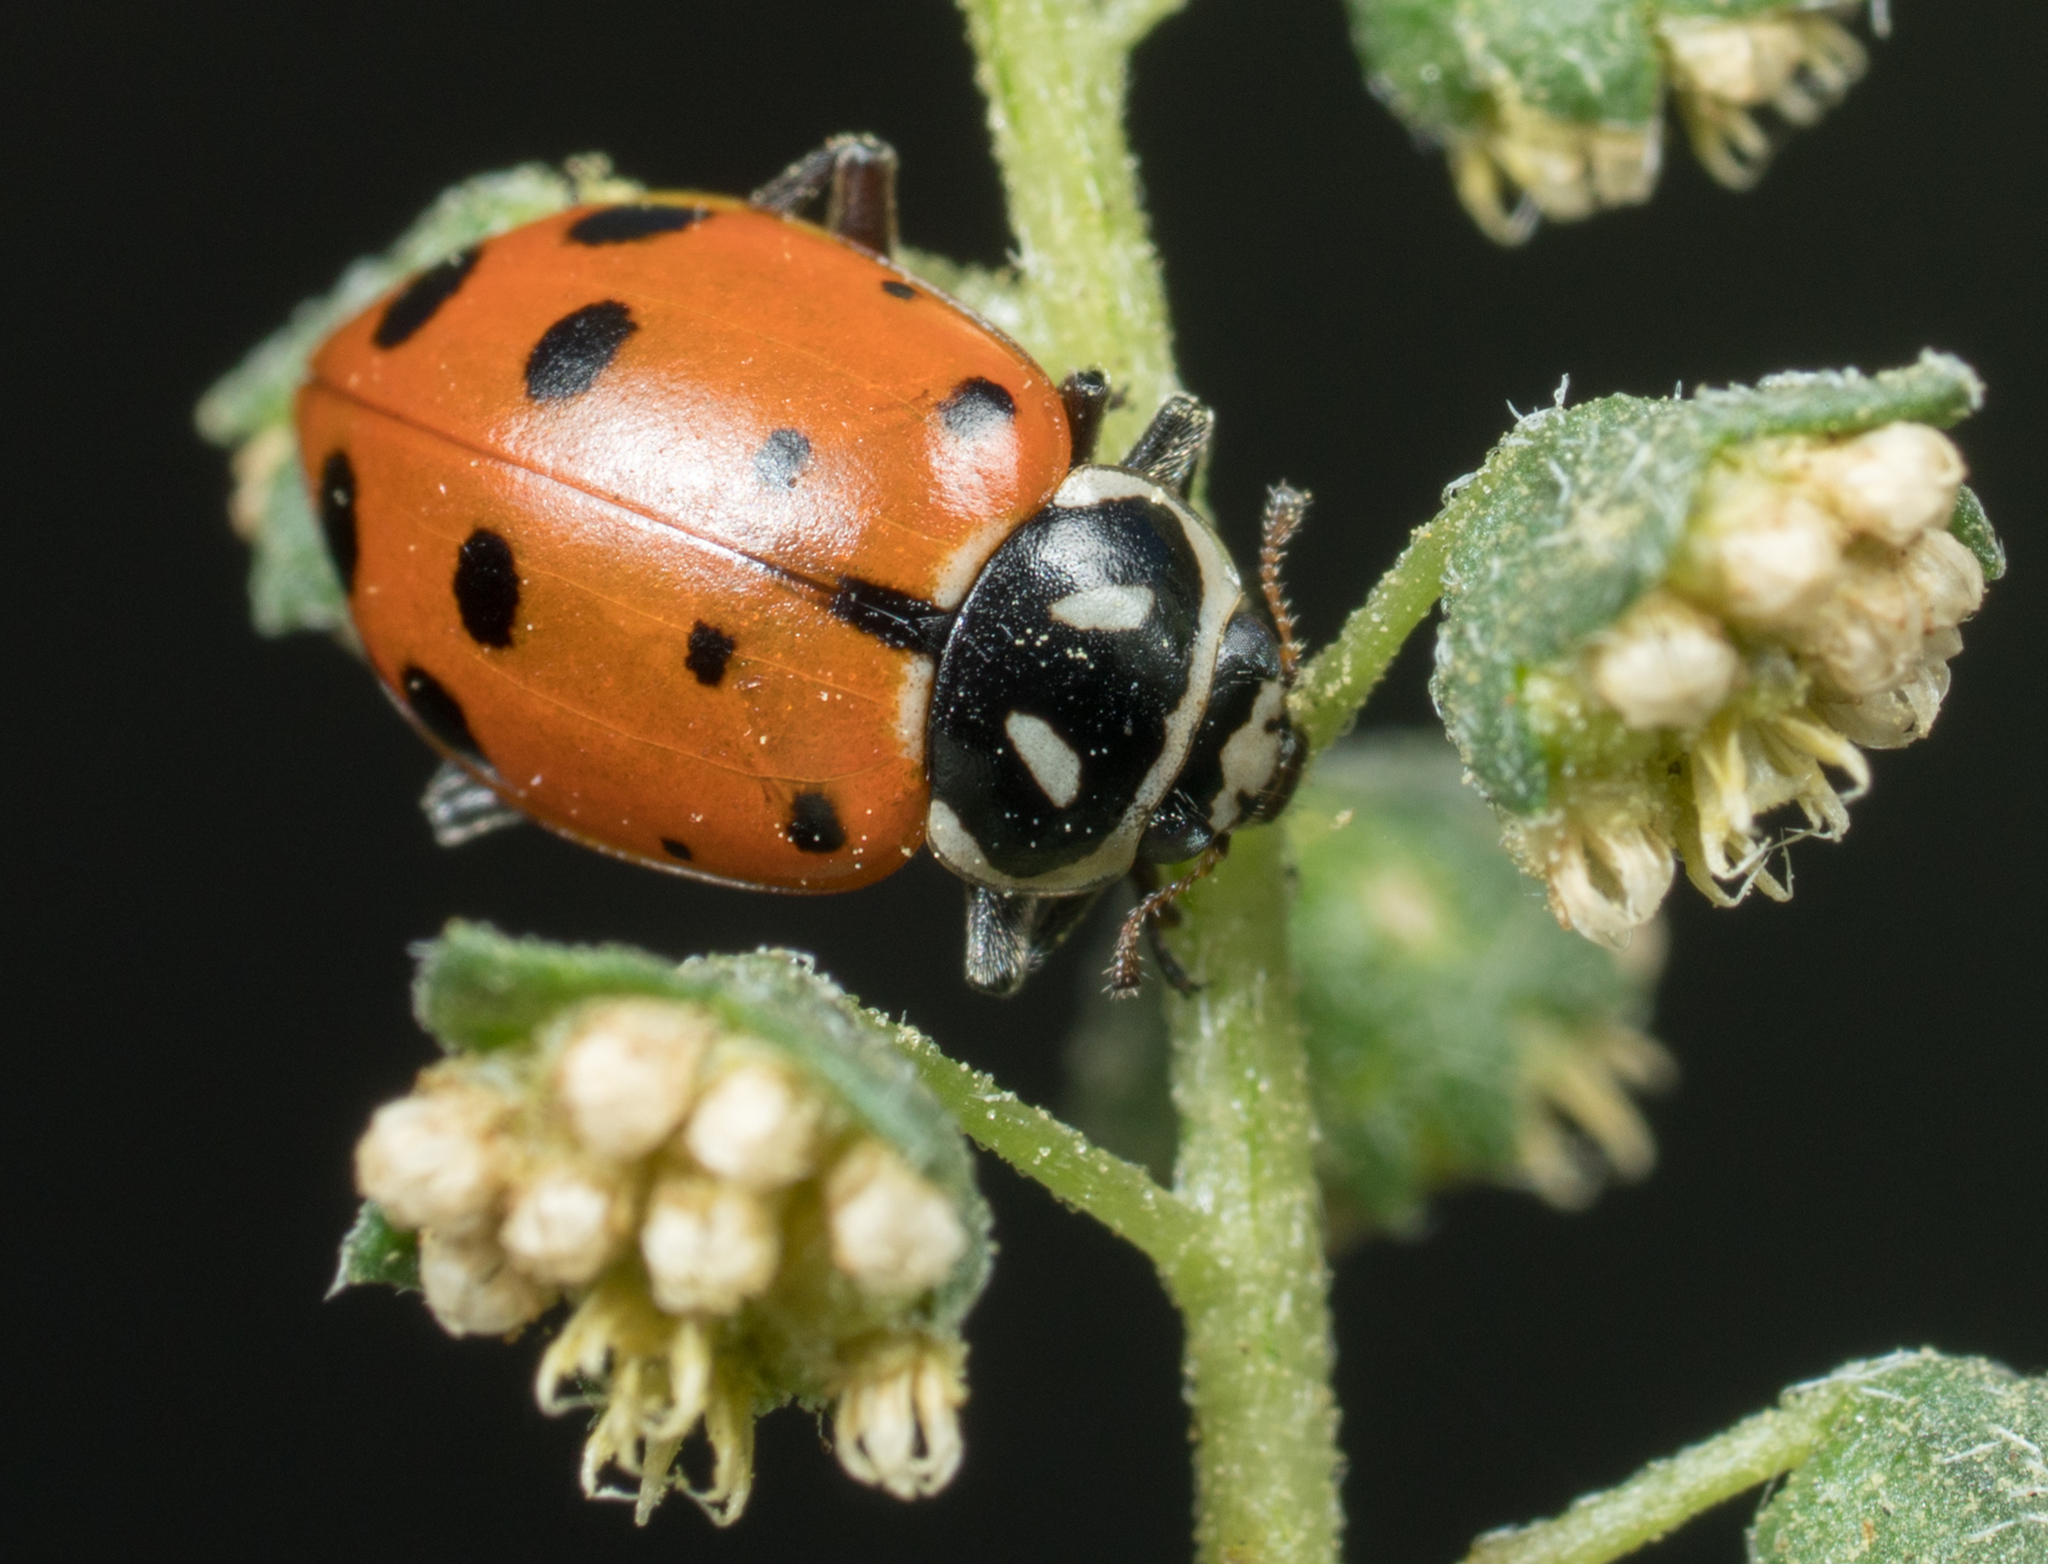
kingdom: Animalia
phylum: Arthropoda
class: Insecta
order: Coleoptera
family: Coccinellidae
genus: Hippodamia
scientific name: Hippodamia convergens
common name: Convergent lady beetle
